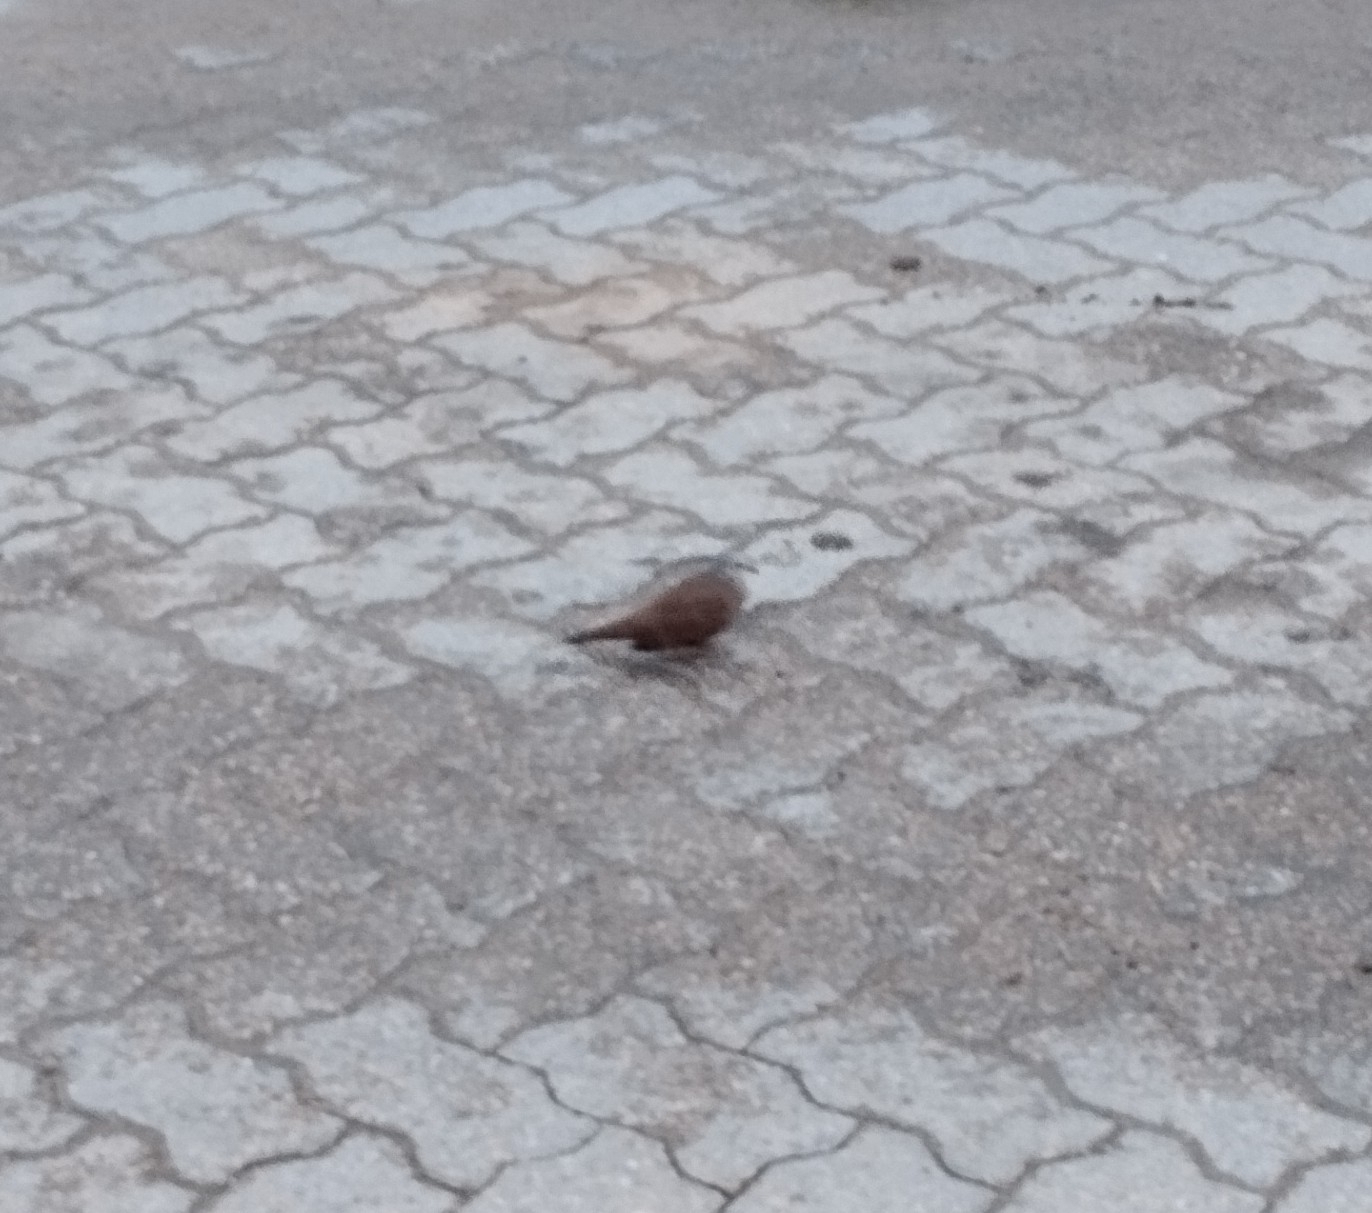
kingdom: Animalia
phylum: Chordata
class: Aves
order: Columbiformes
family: Columbidae
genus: Columbina
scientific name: Columbina talpacoti
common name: Ruddy ground dove
